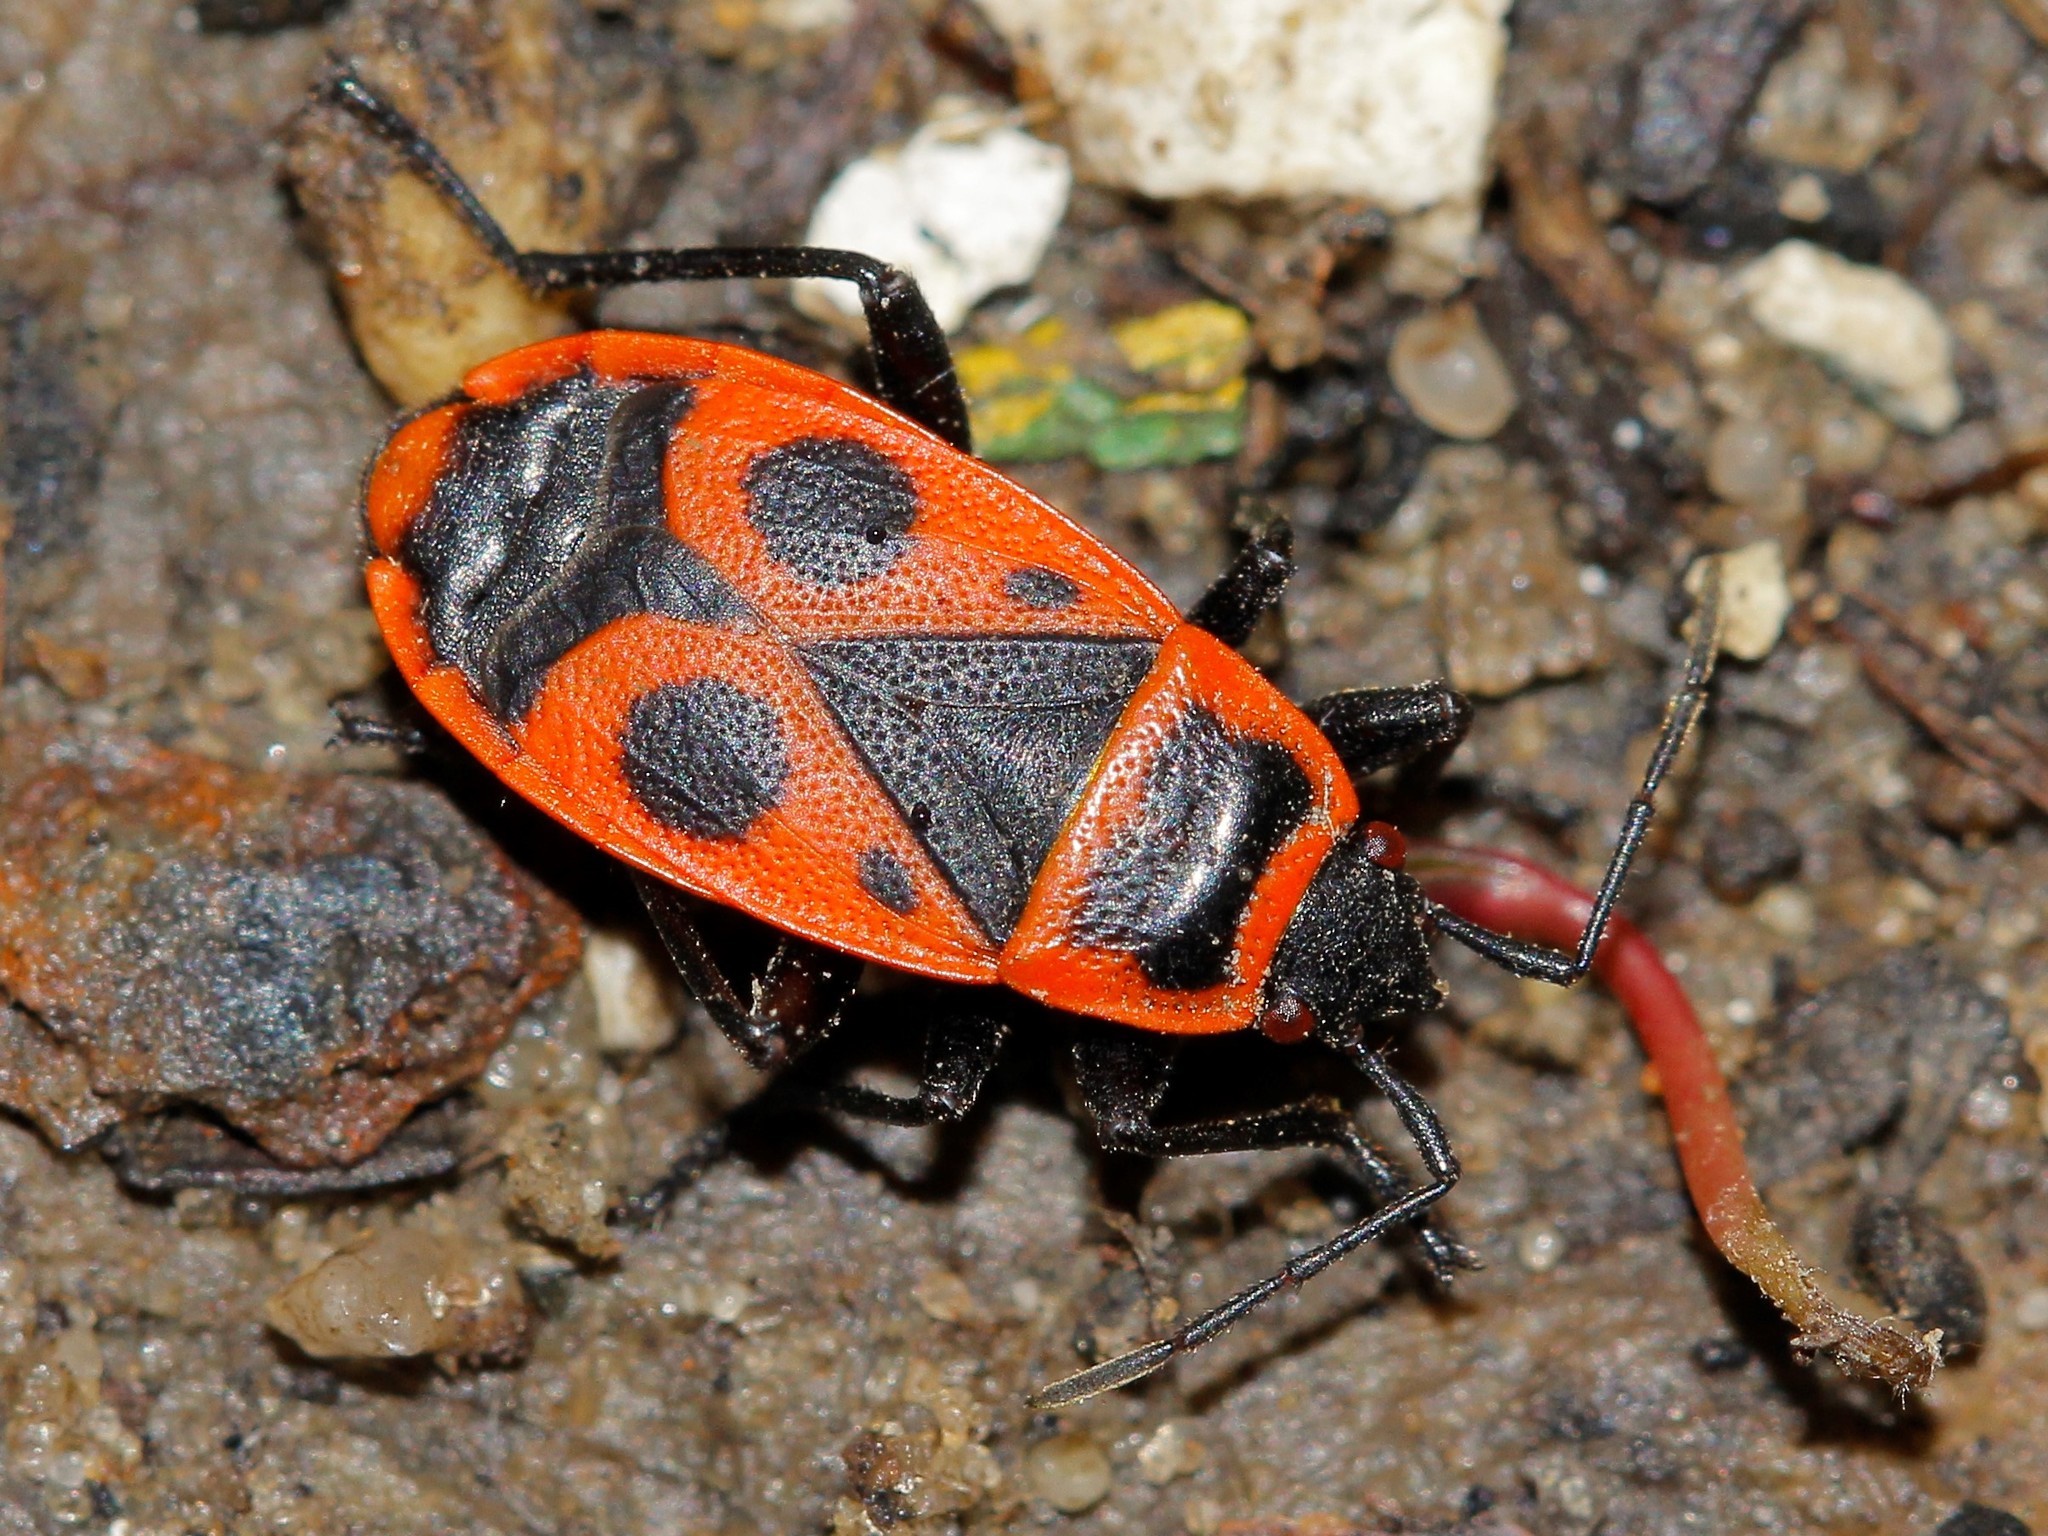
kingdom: Animalia
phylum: Arthropoda
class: Insecta
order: Hemiptera
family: Pyrrhocoridae
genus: Pyrrhocoris
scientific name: Pyrrhocoris apterus
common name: Firebug
